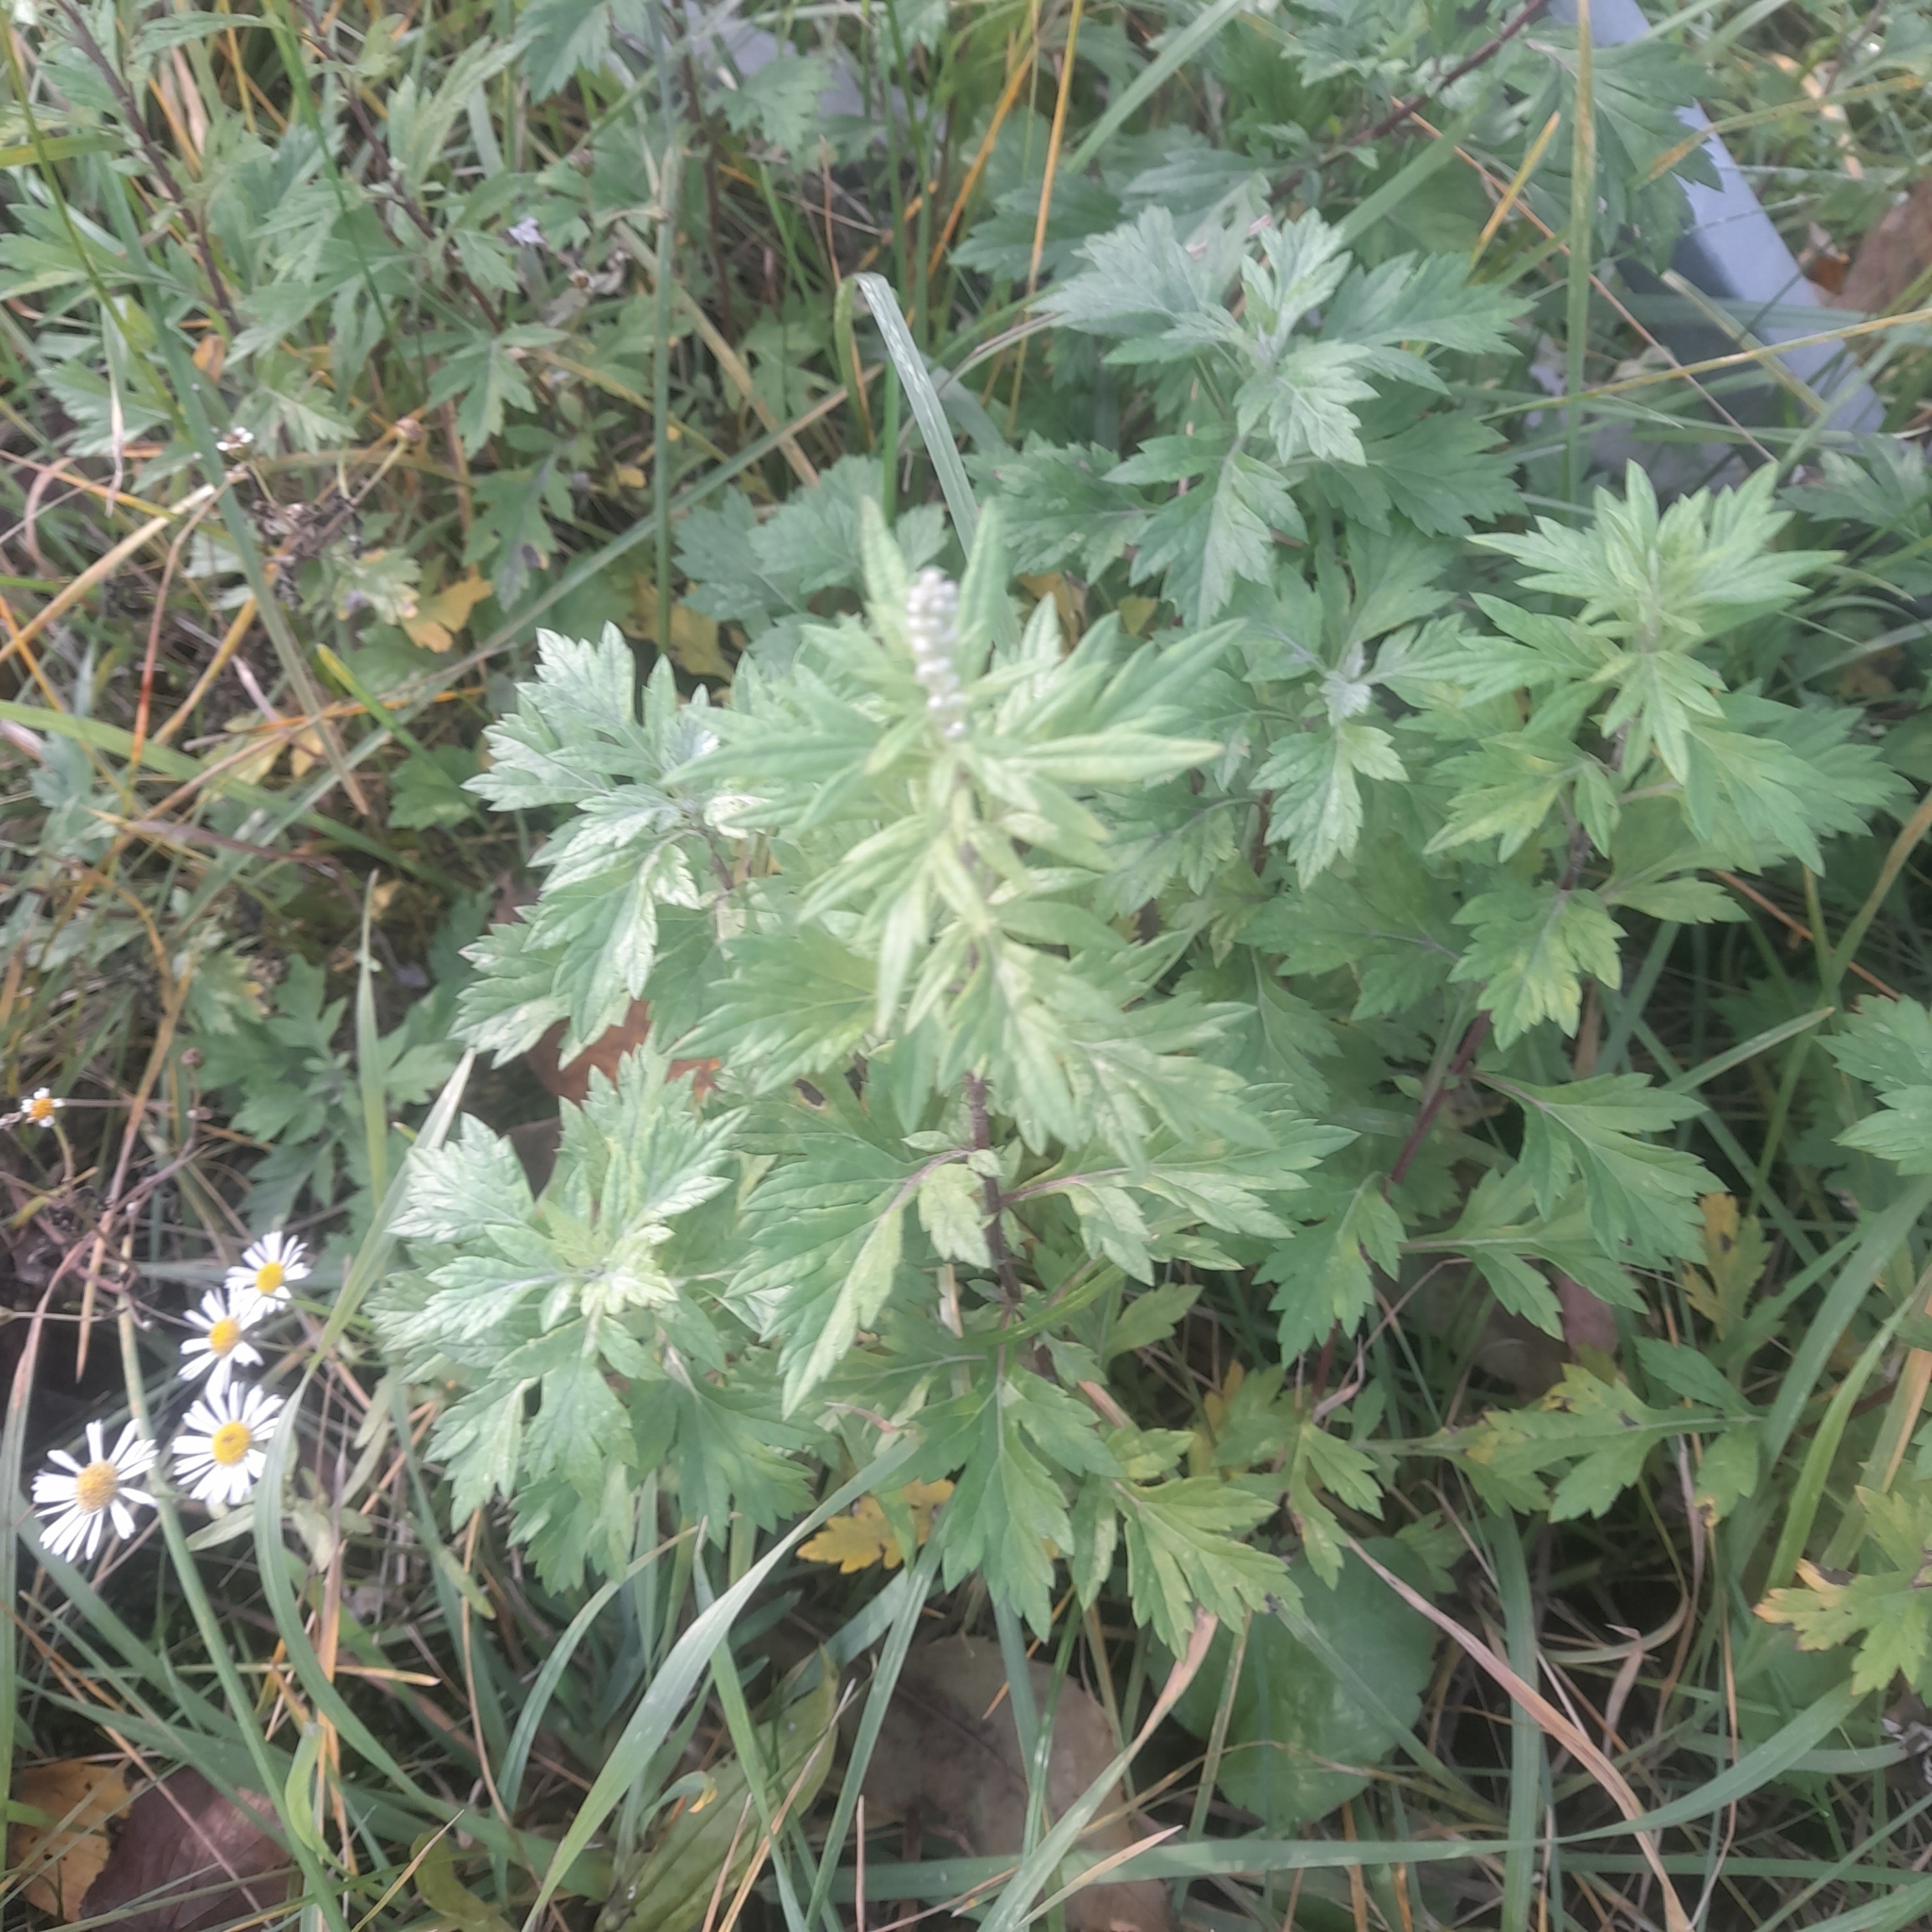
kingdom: Plantae
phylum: Tracheophyta
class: Magnoliopsida
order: Asterales
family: Asteraceae
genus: Artemisia
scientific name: Artemisia vulgaris
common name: Mugwort
